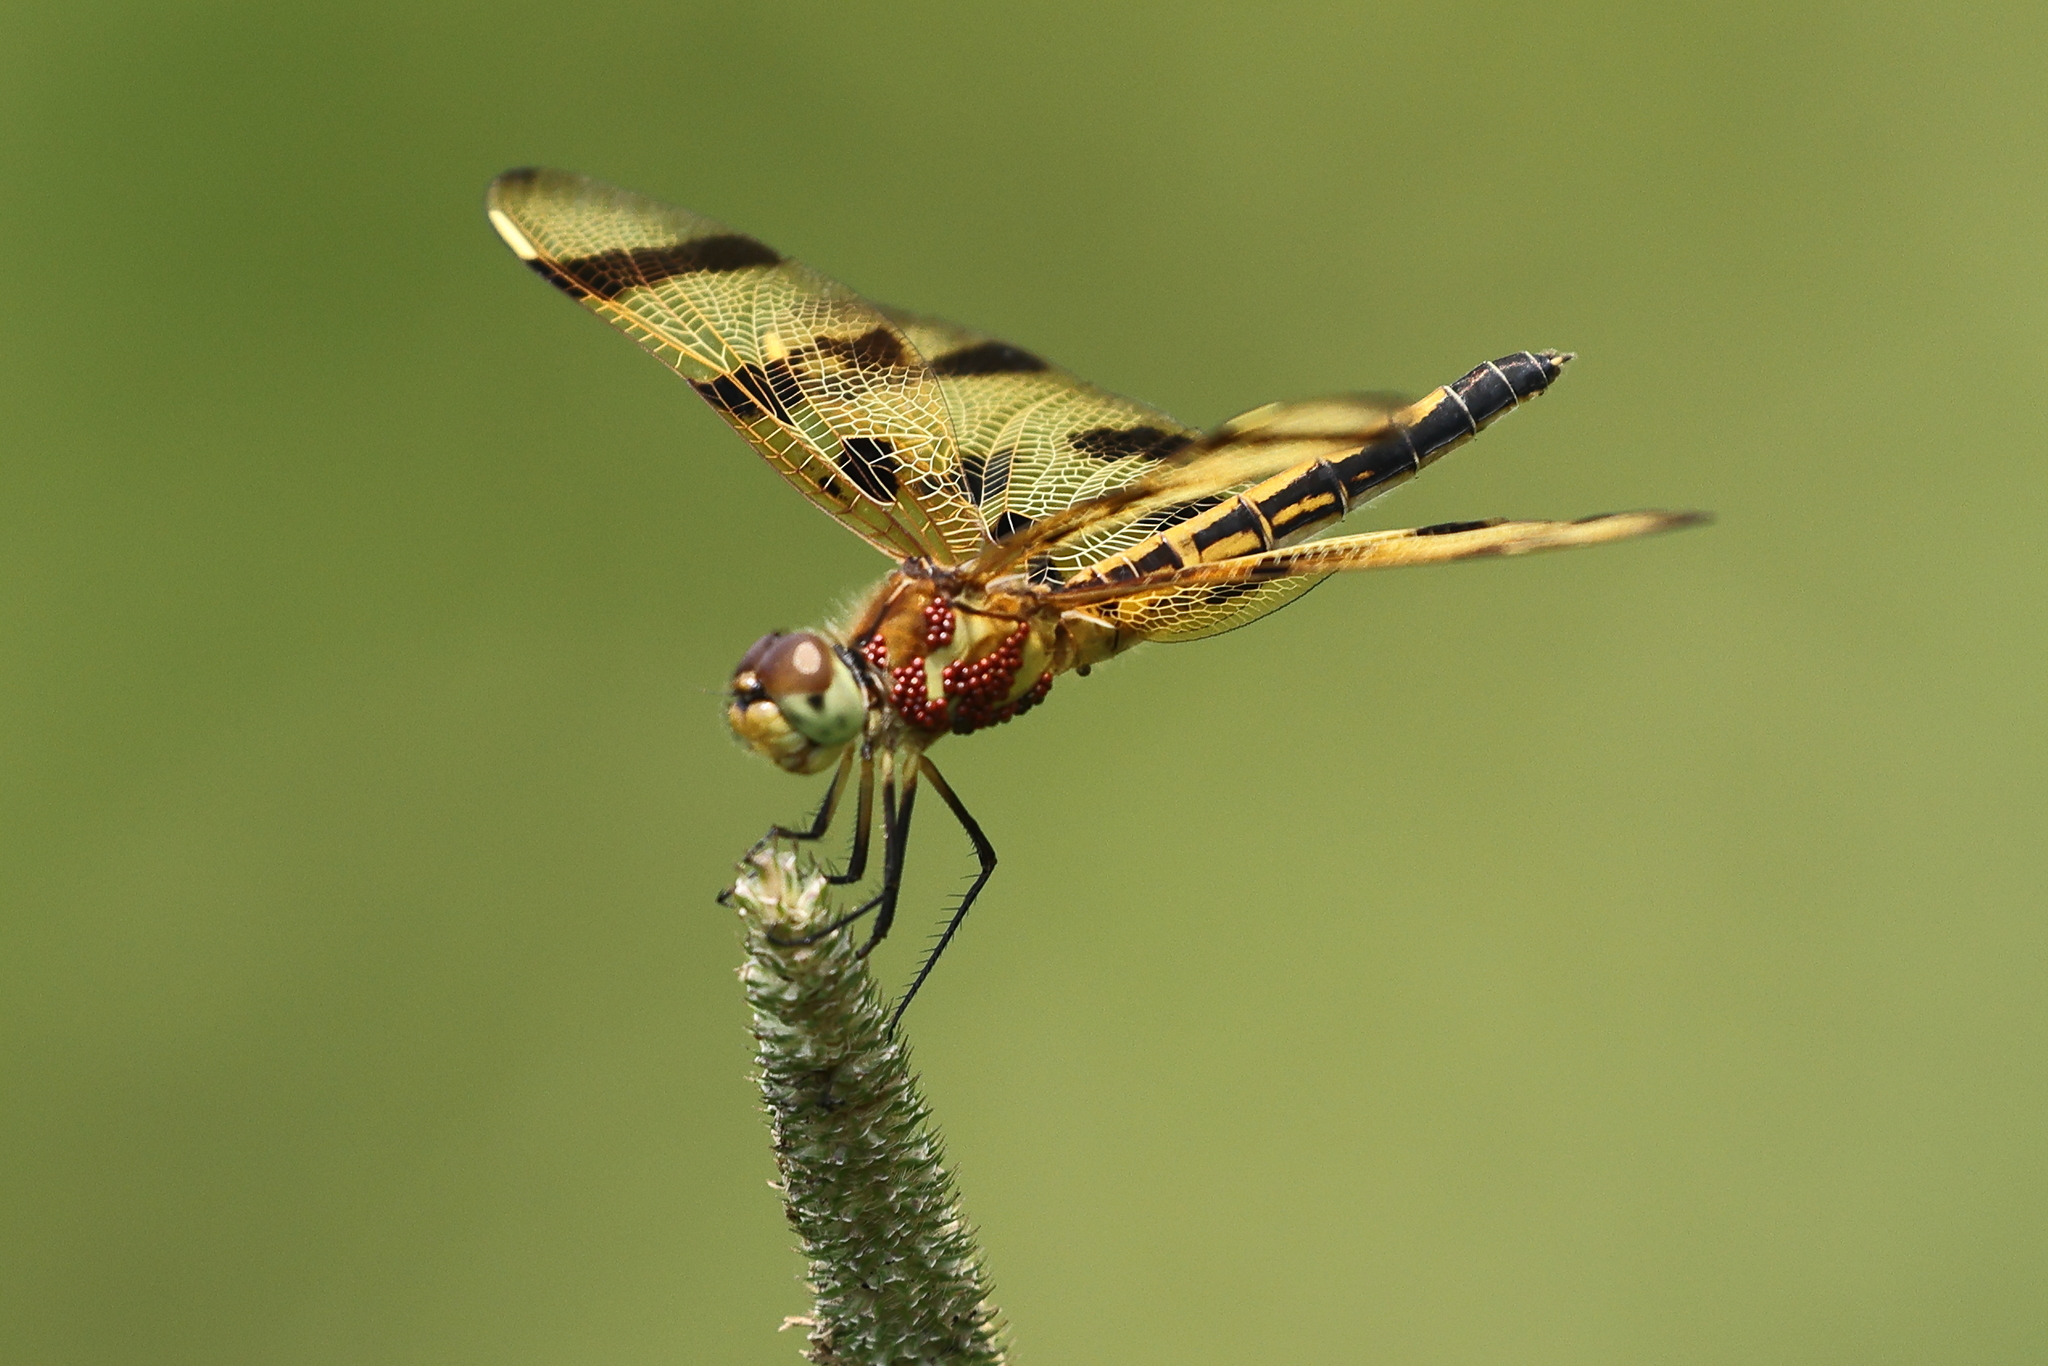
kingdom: Animalia
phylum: Arthropoda
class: Insecta
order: Odonata
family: Libellulidae
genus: Celithemis
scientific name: Celithemis eponina
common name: Halloween pennant
